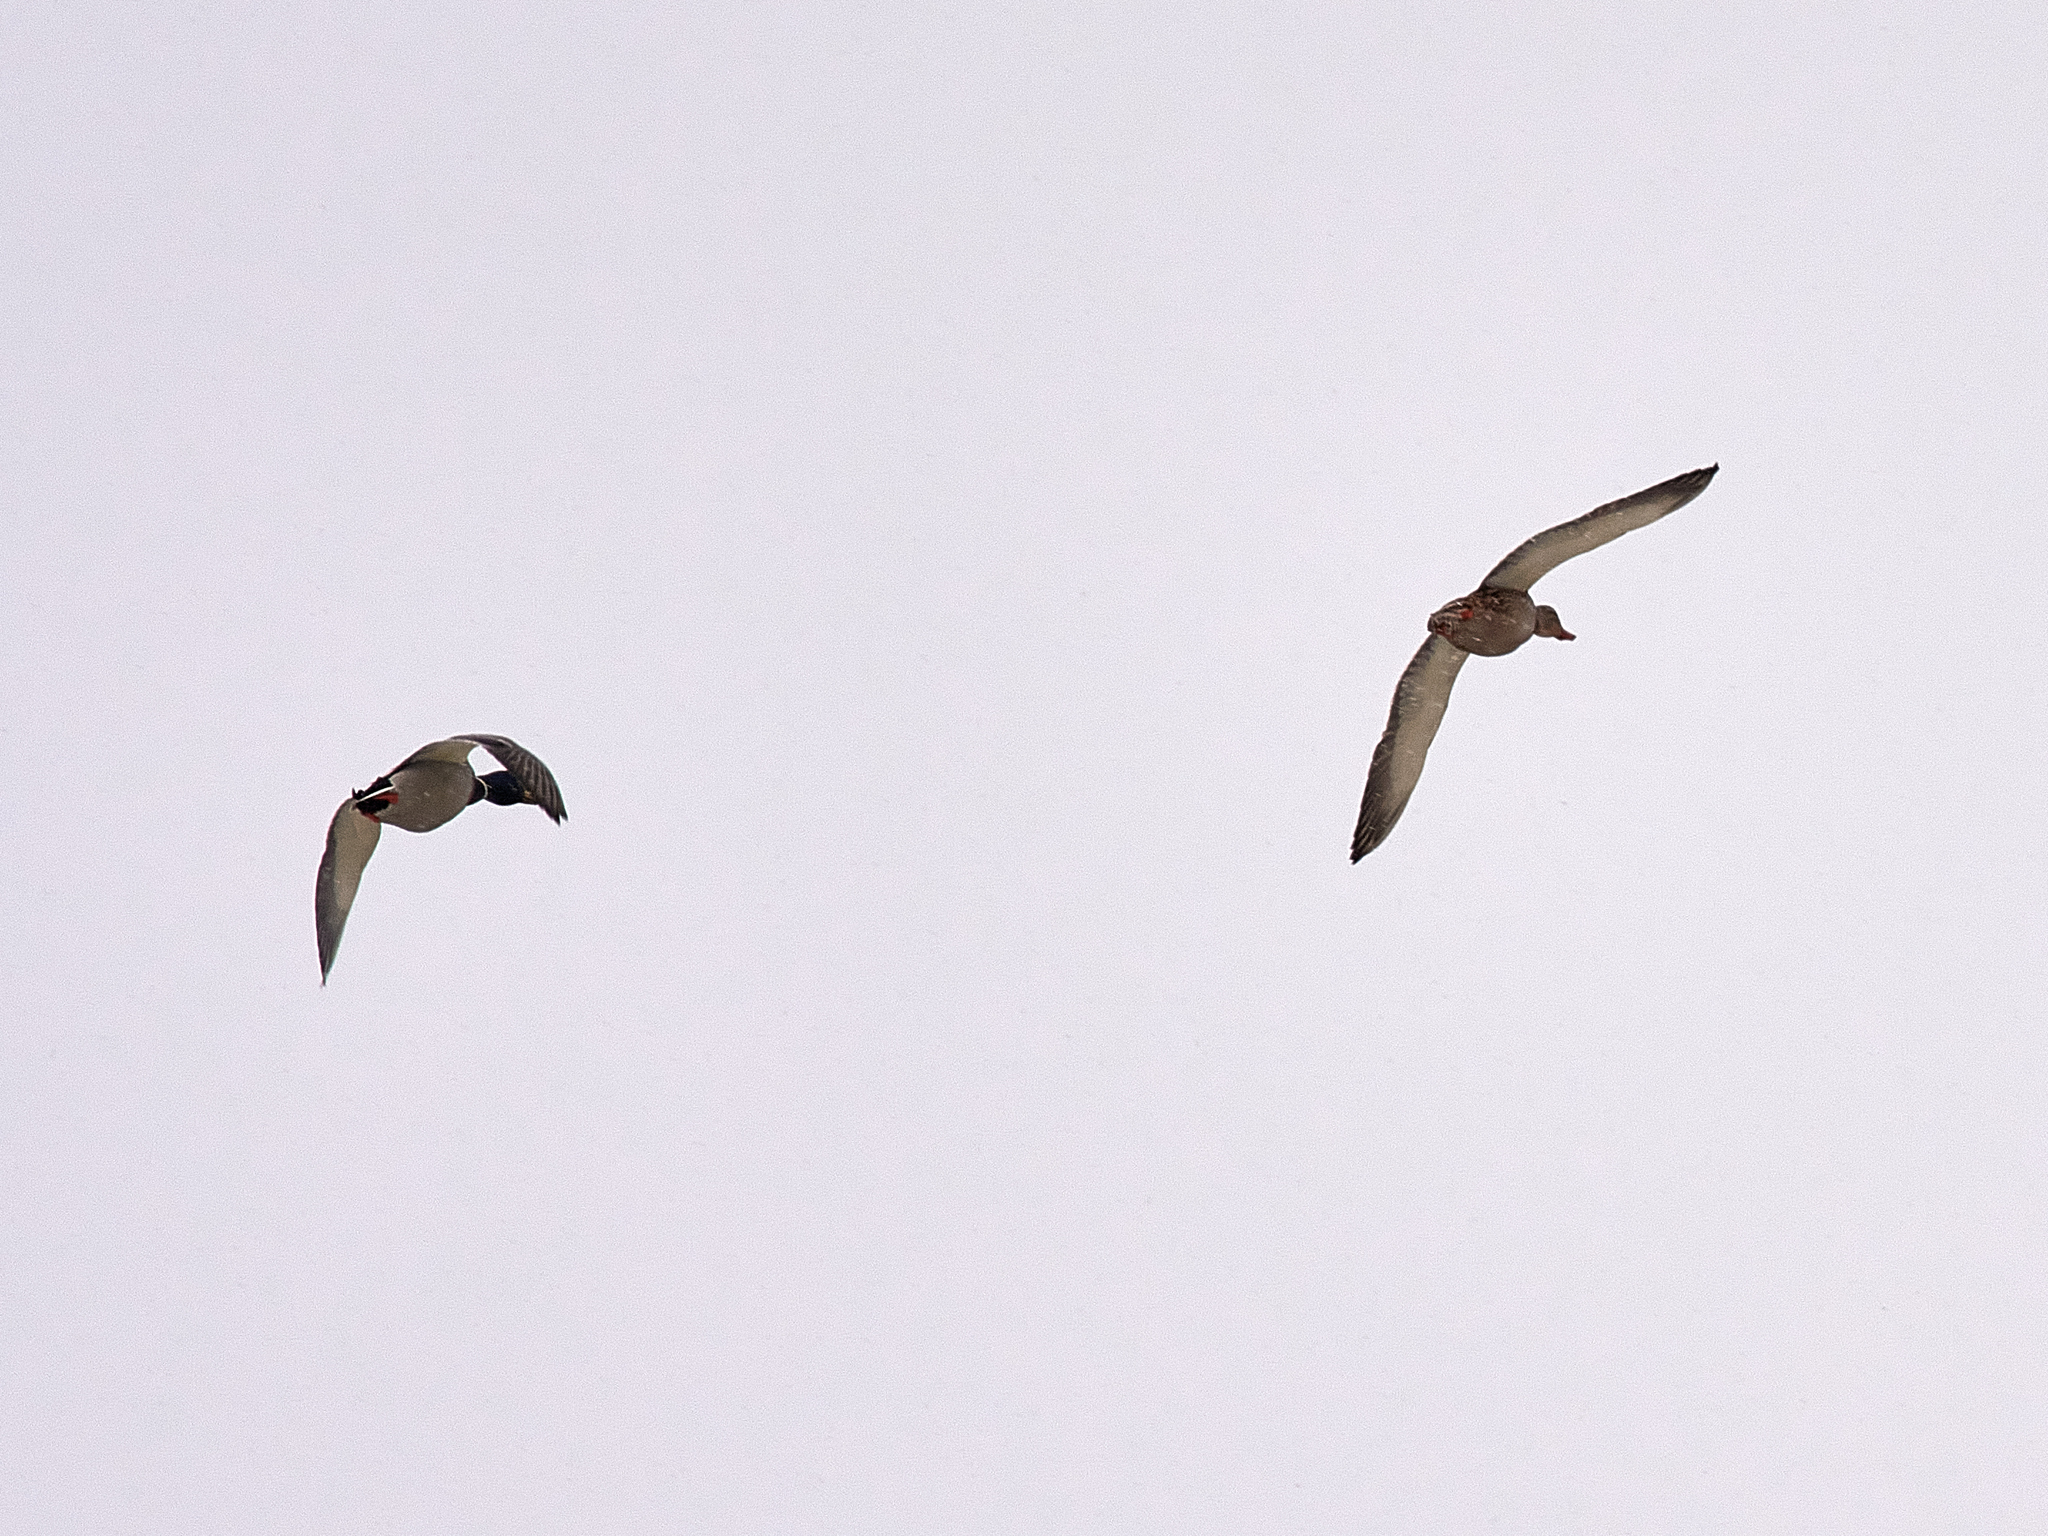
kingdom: Animalia
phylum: Chordata
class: Aves
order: Anseriformes
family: Anatidae
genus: Anas
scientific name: Anas platyrhynchos
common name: Mallard
